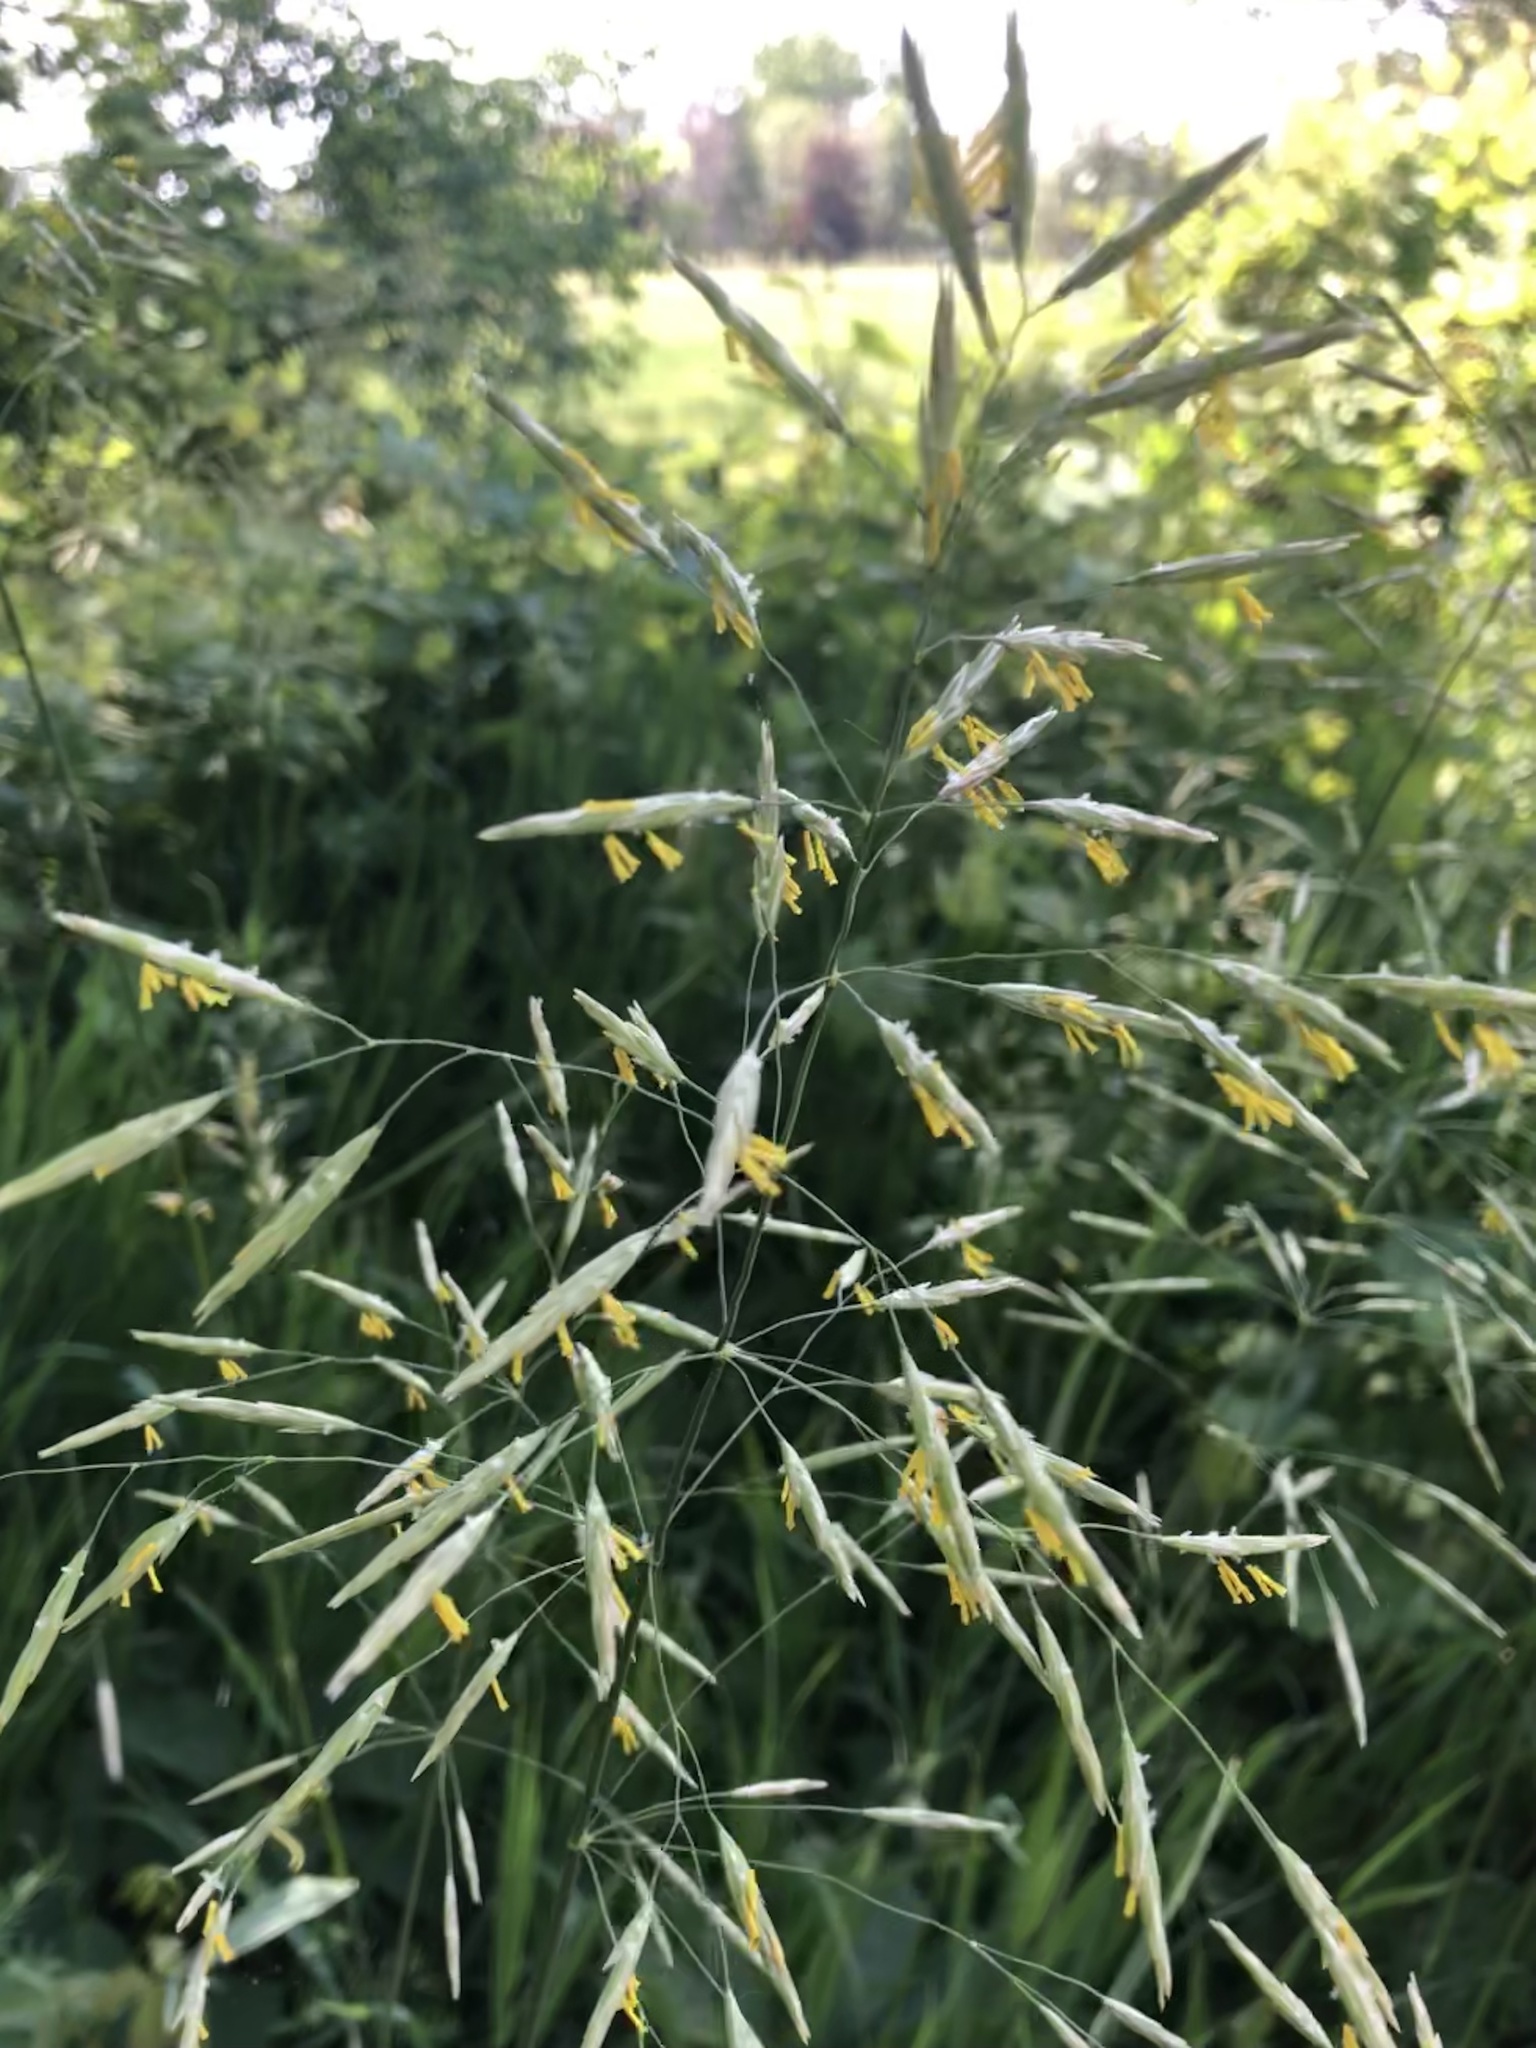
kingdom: Plantae
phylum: Tracheophyta
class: Liliopsida
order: Poales
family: Poaceae
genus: Bromus
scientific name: Bromus inermis
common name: Smooth brome
